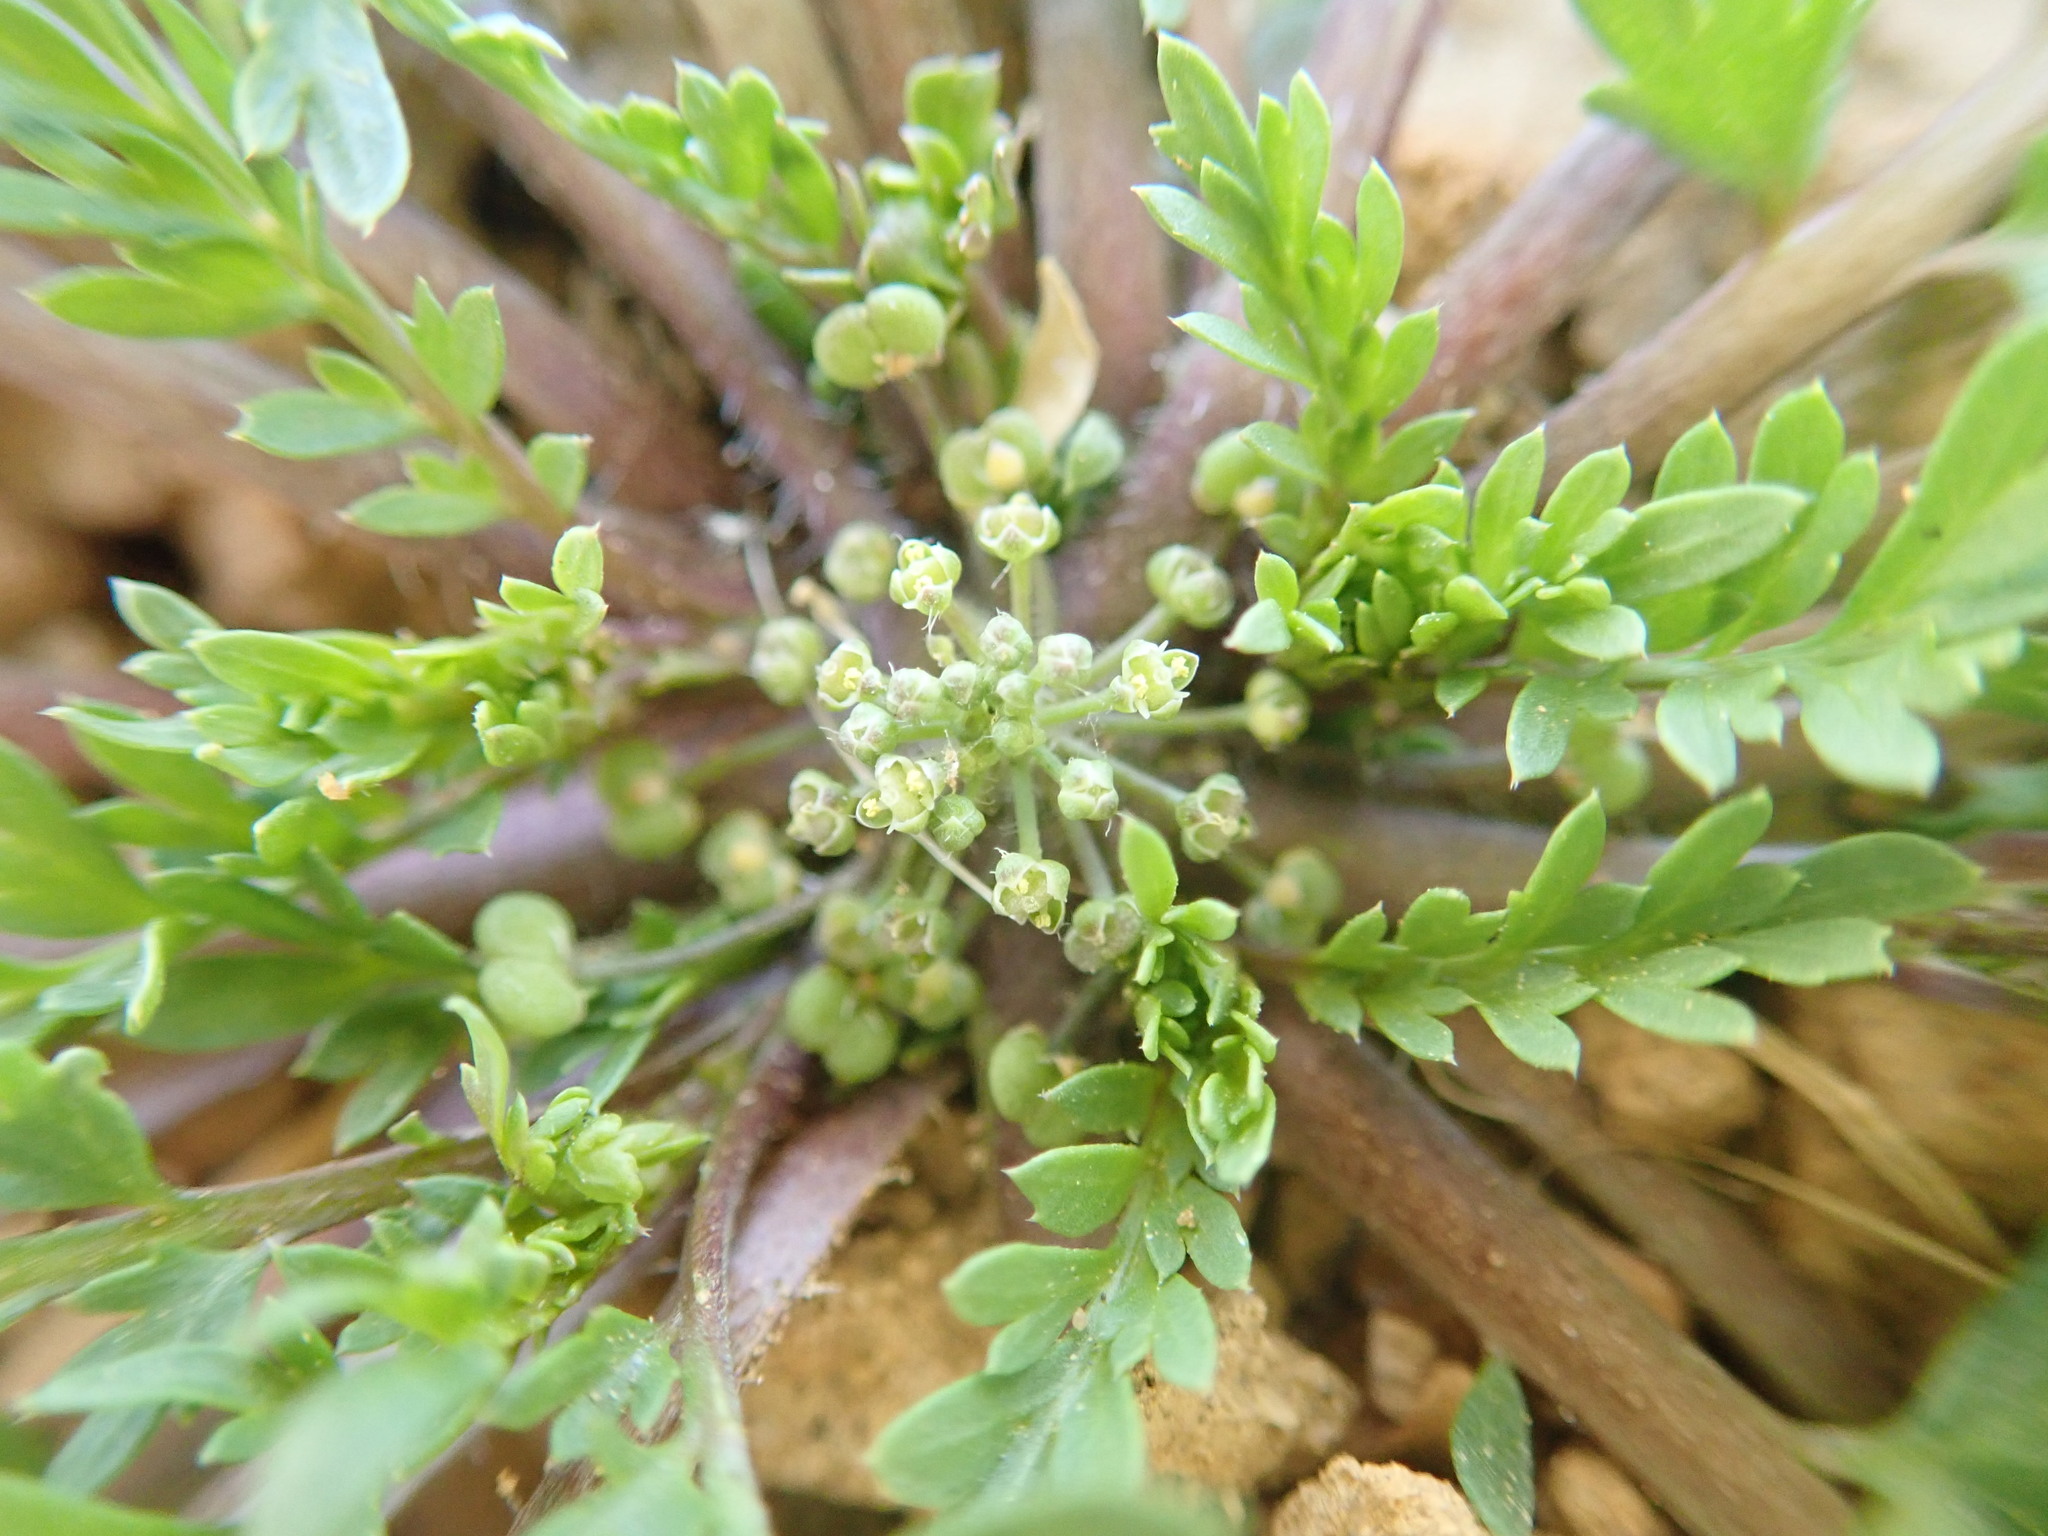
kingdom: Plantae
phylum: Tracheophyta
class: Magnoliopsida
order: Brassicales
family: Brassicaceae
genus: Lepidium
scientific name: Lepidium didymum
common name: Lesser swinecress
